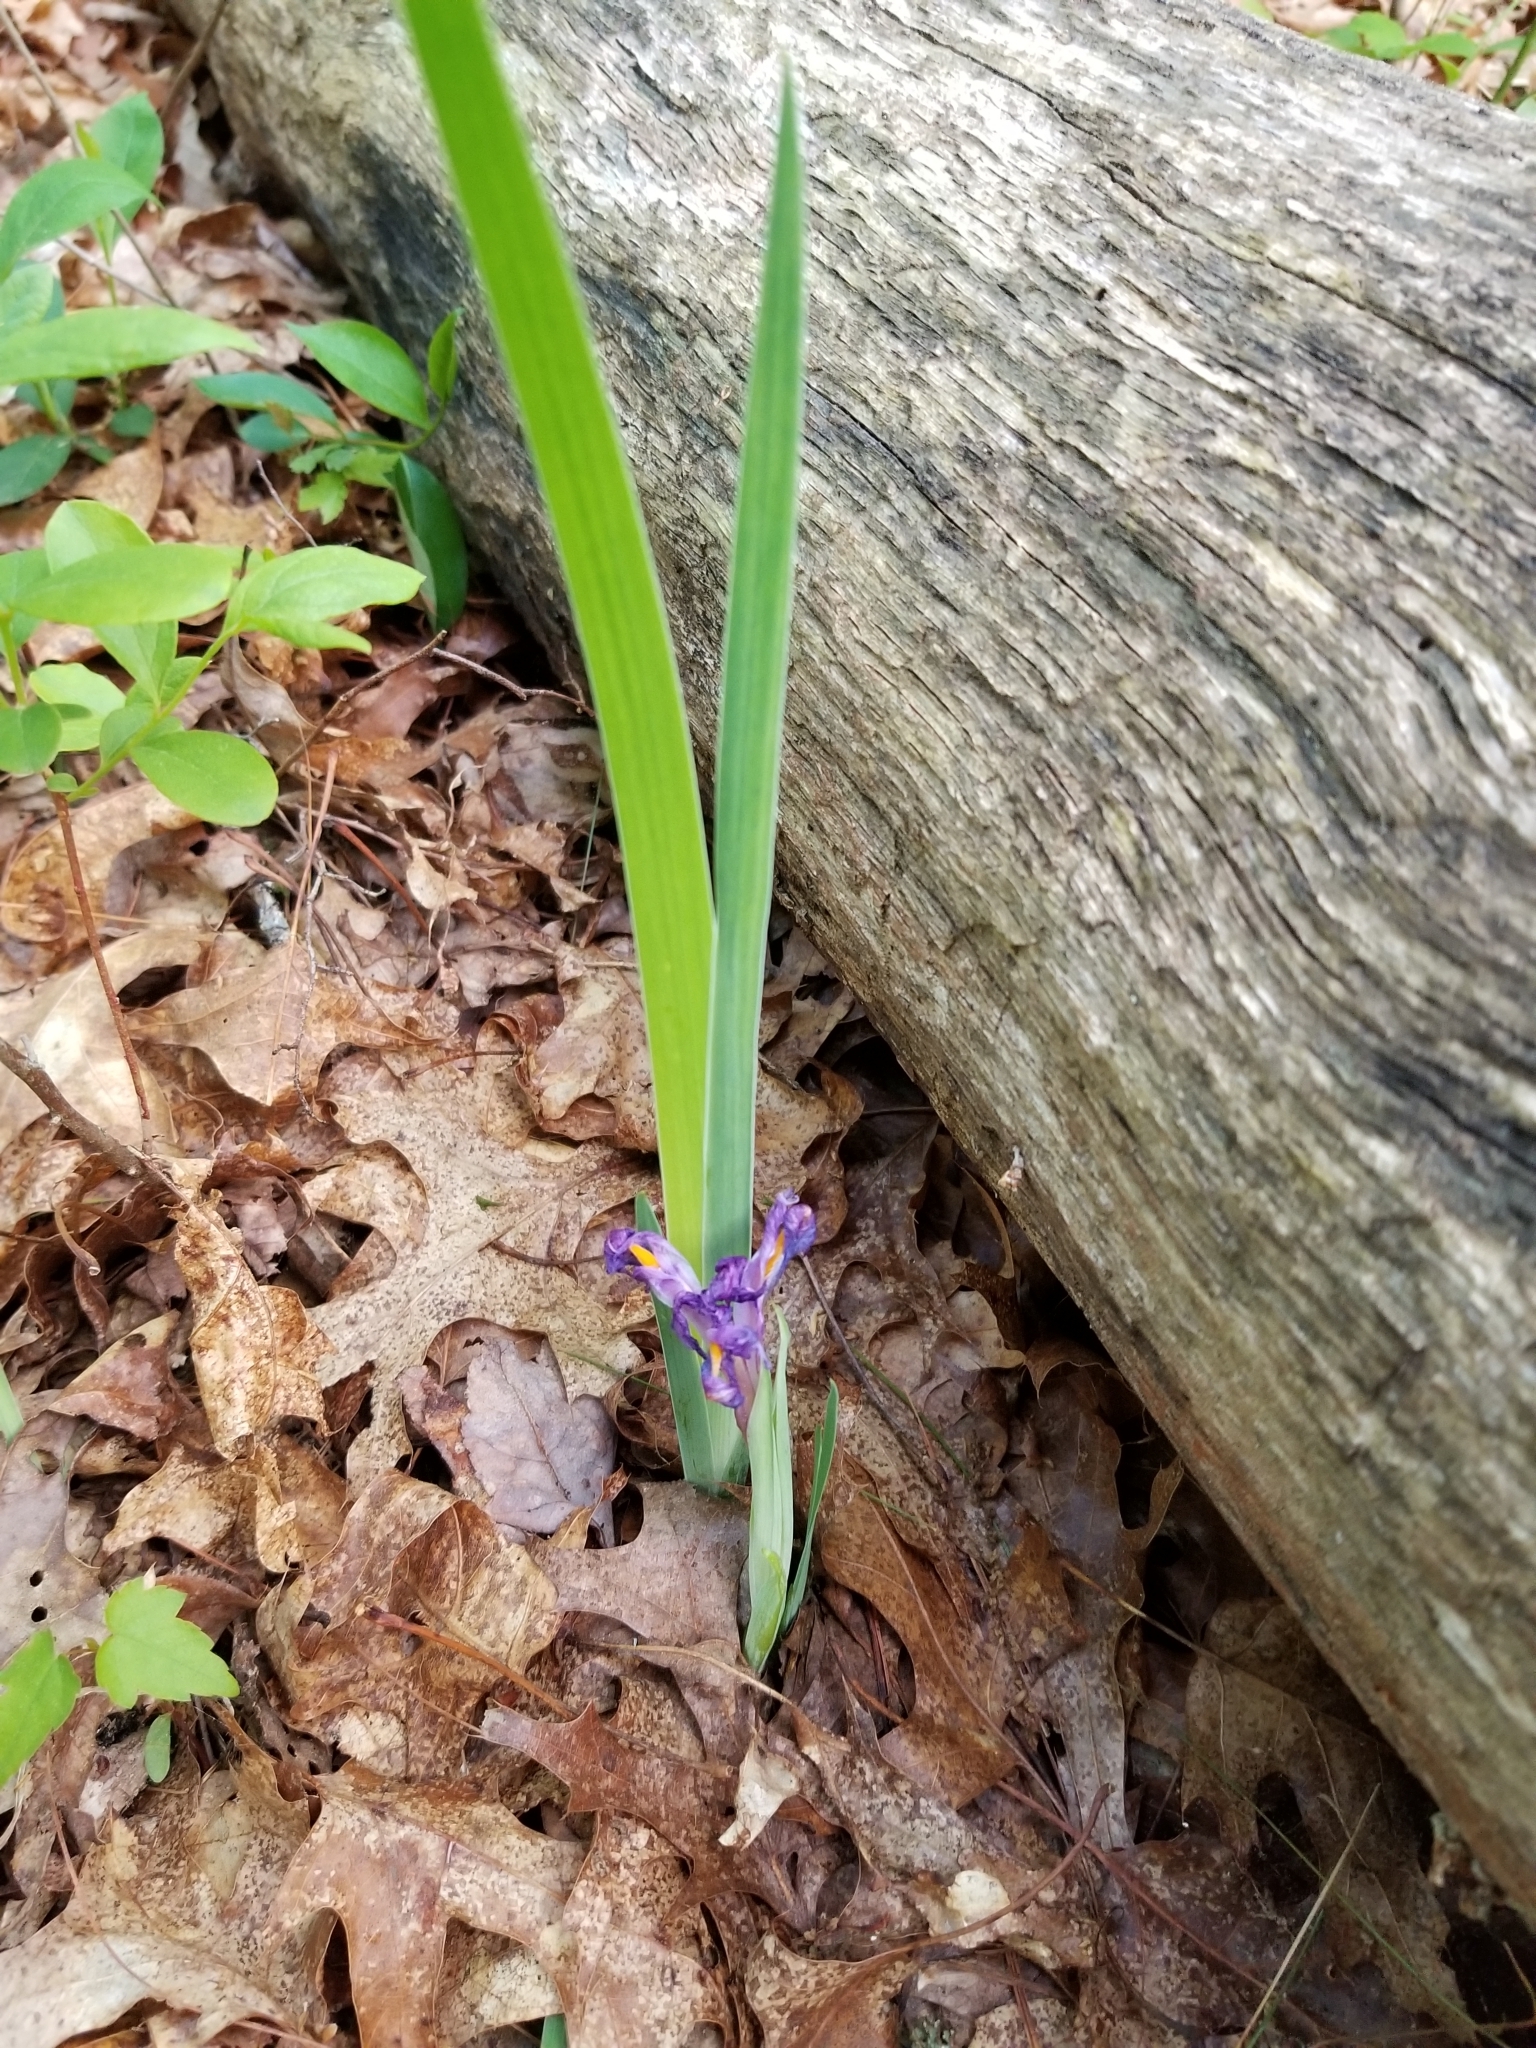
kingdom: Plantae
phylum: Tracheophyta
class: Liliopsida
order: Asparagales
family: Iridaceae
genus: Iris
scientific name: Iris verna
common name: Dwarf iris
